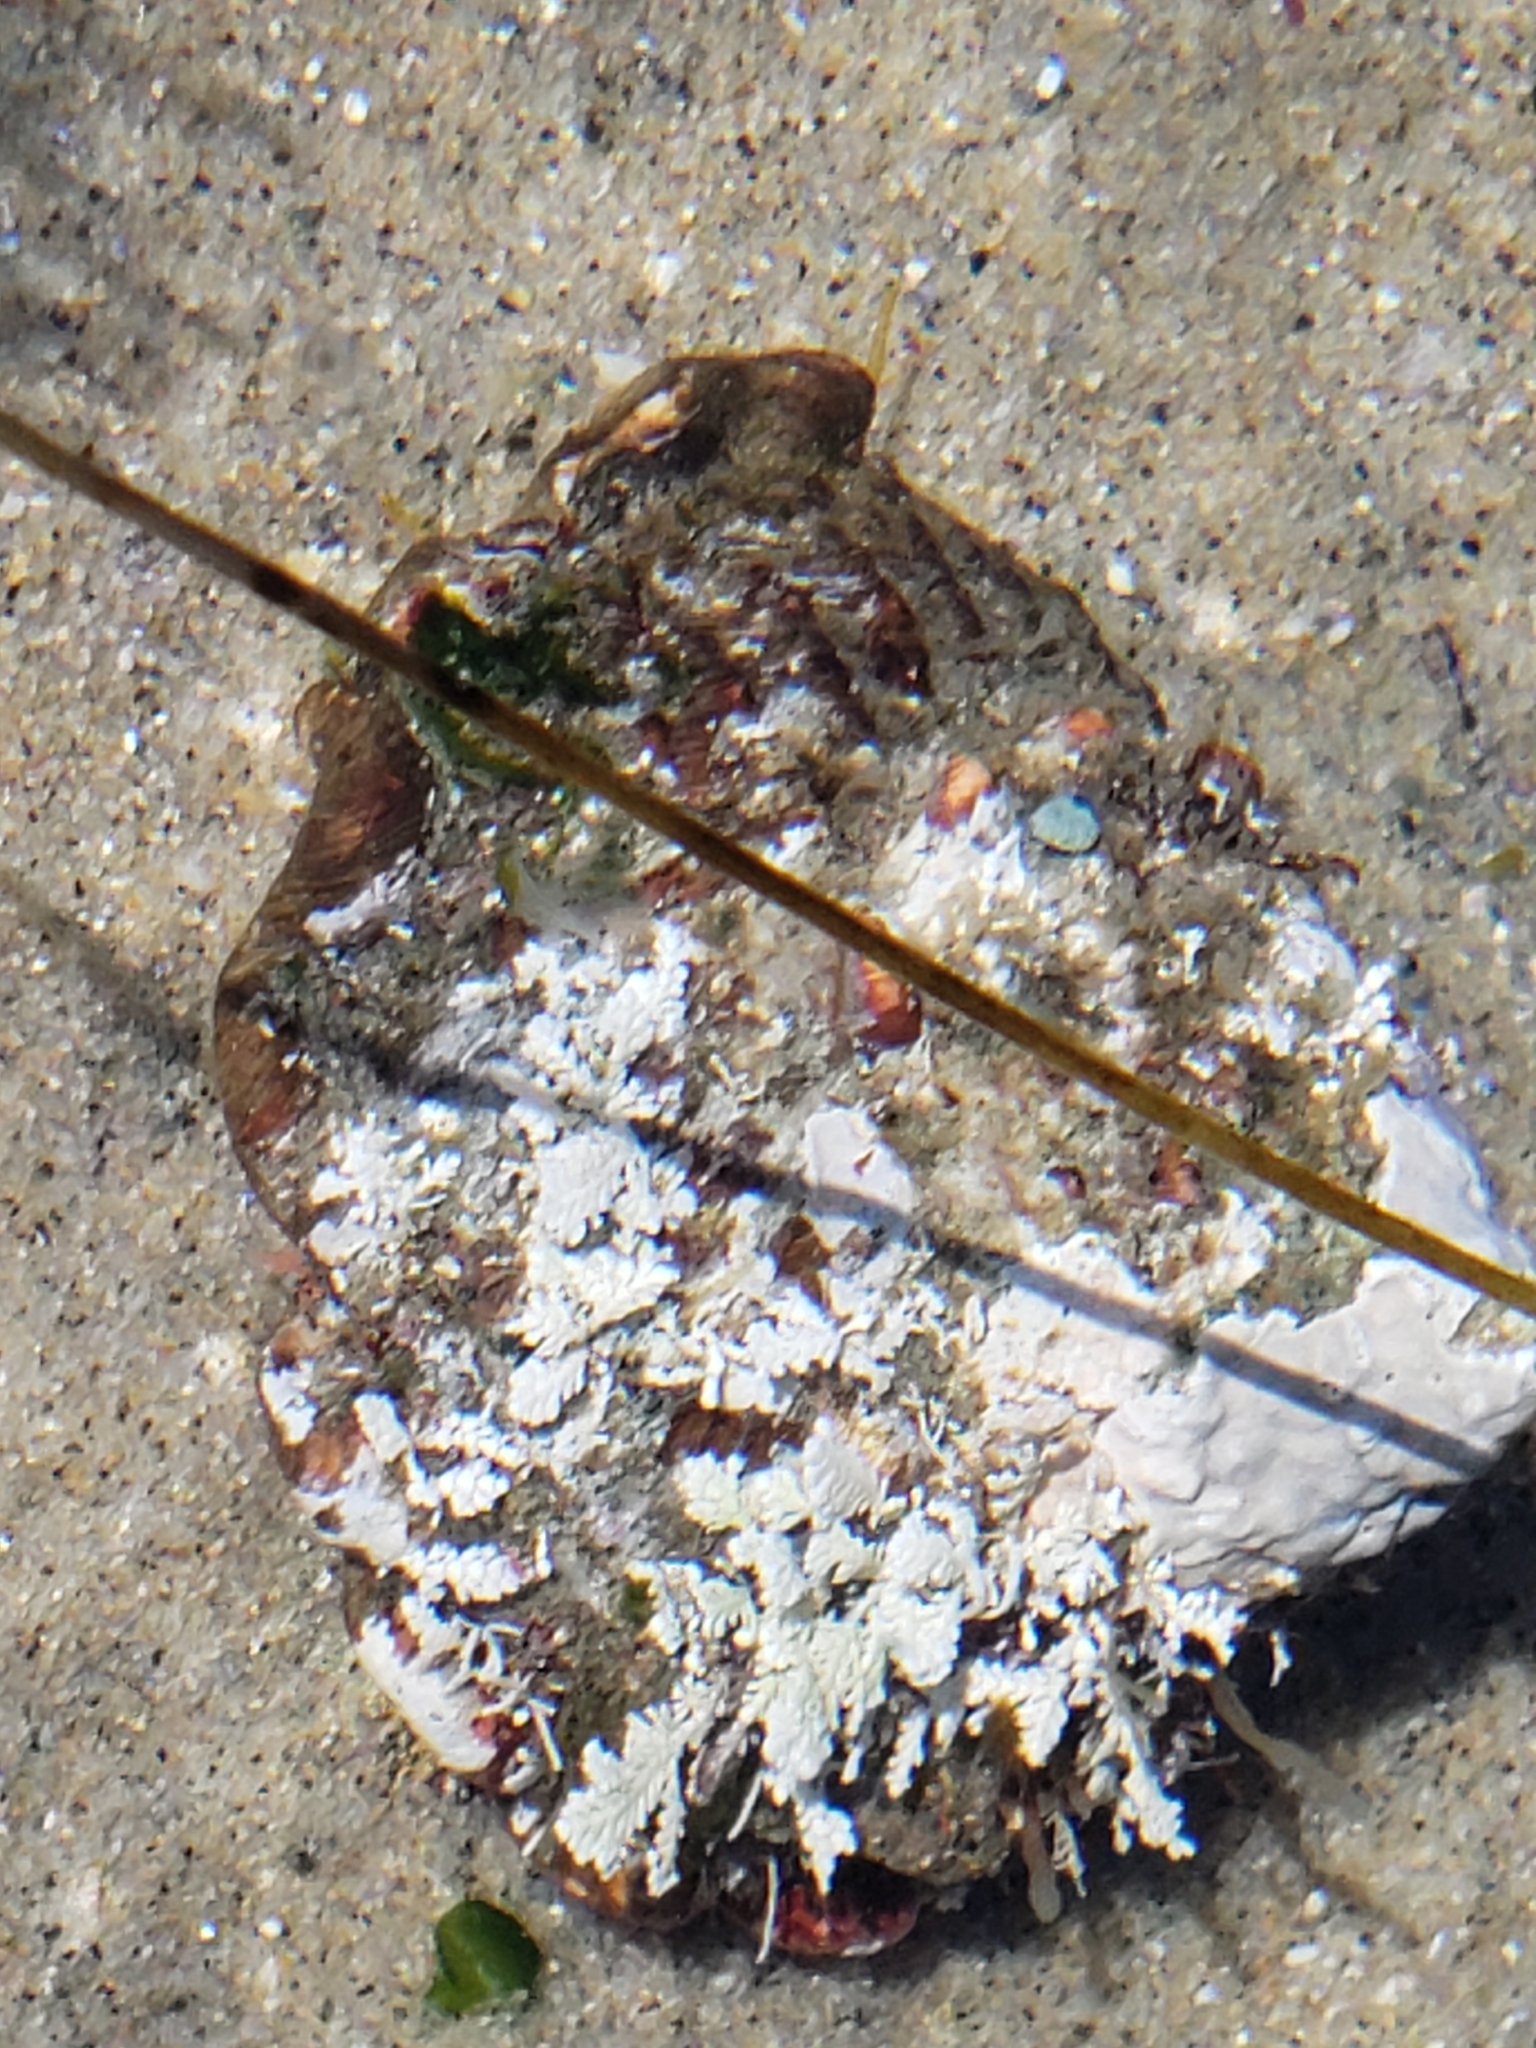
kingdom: Animalia
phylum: Mollusca
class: Gastropoda
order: Trochida
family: Turbinidae
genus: Megastraea
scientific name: Megastraea undosa
